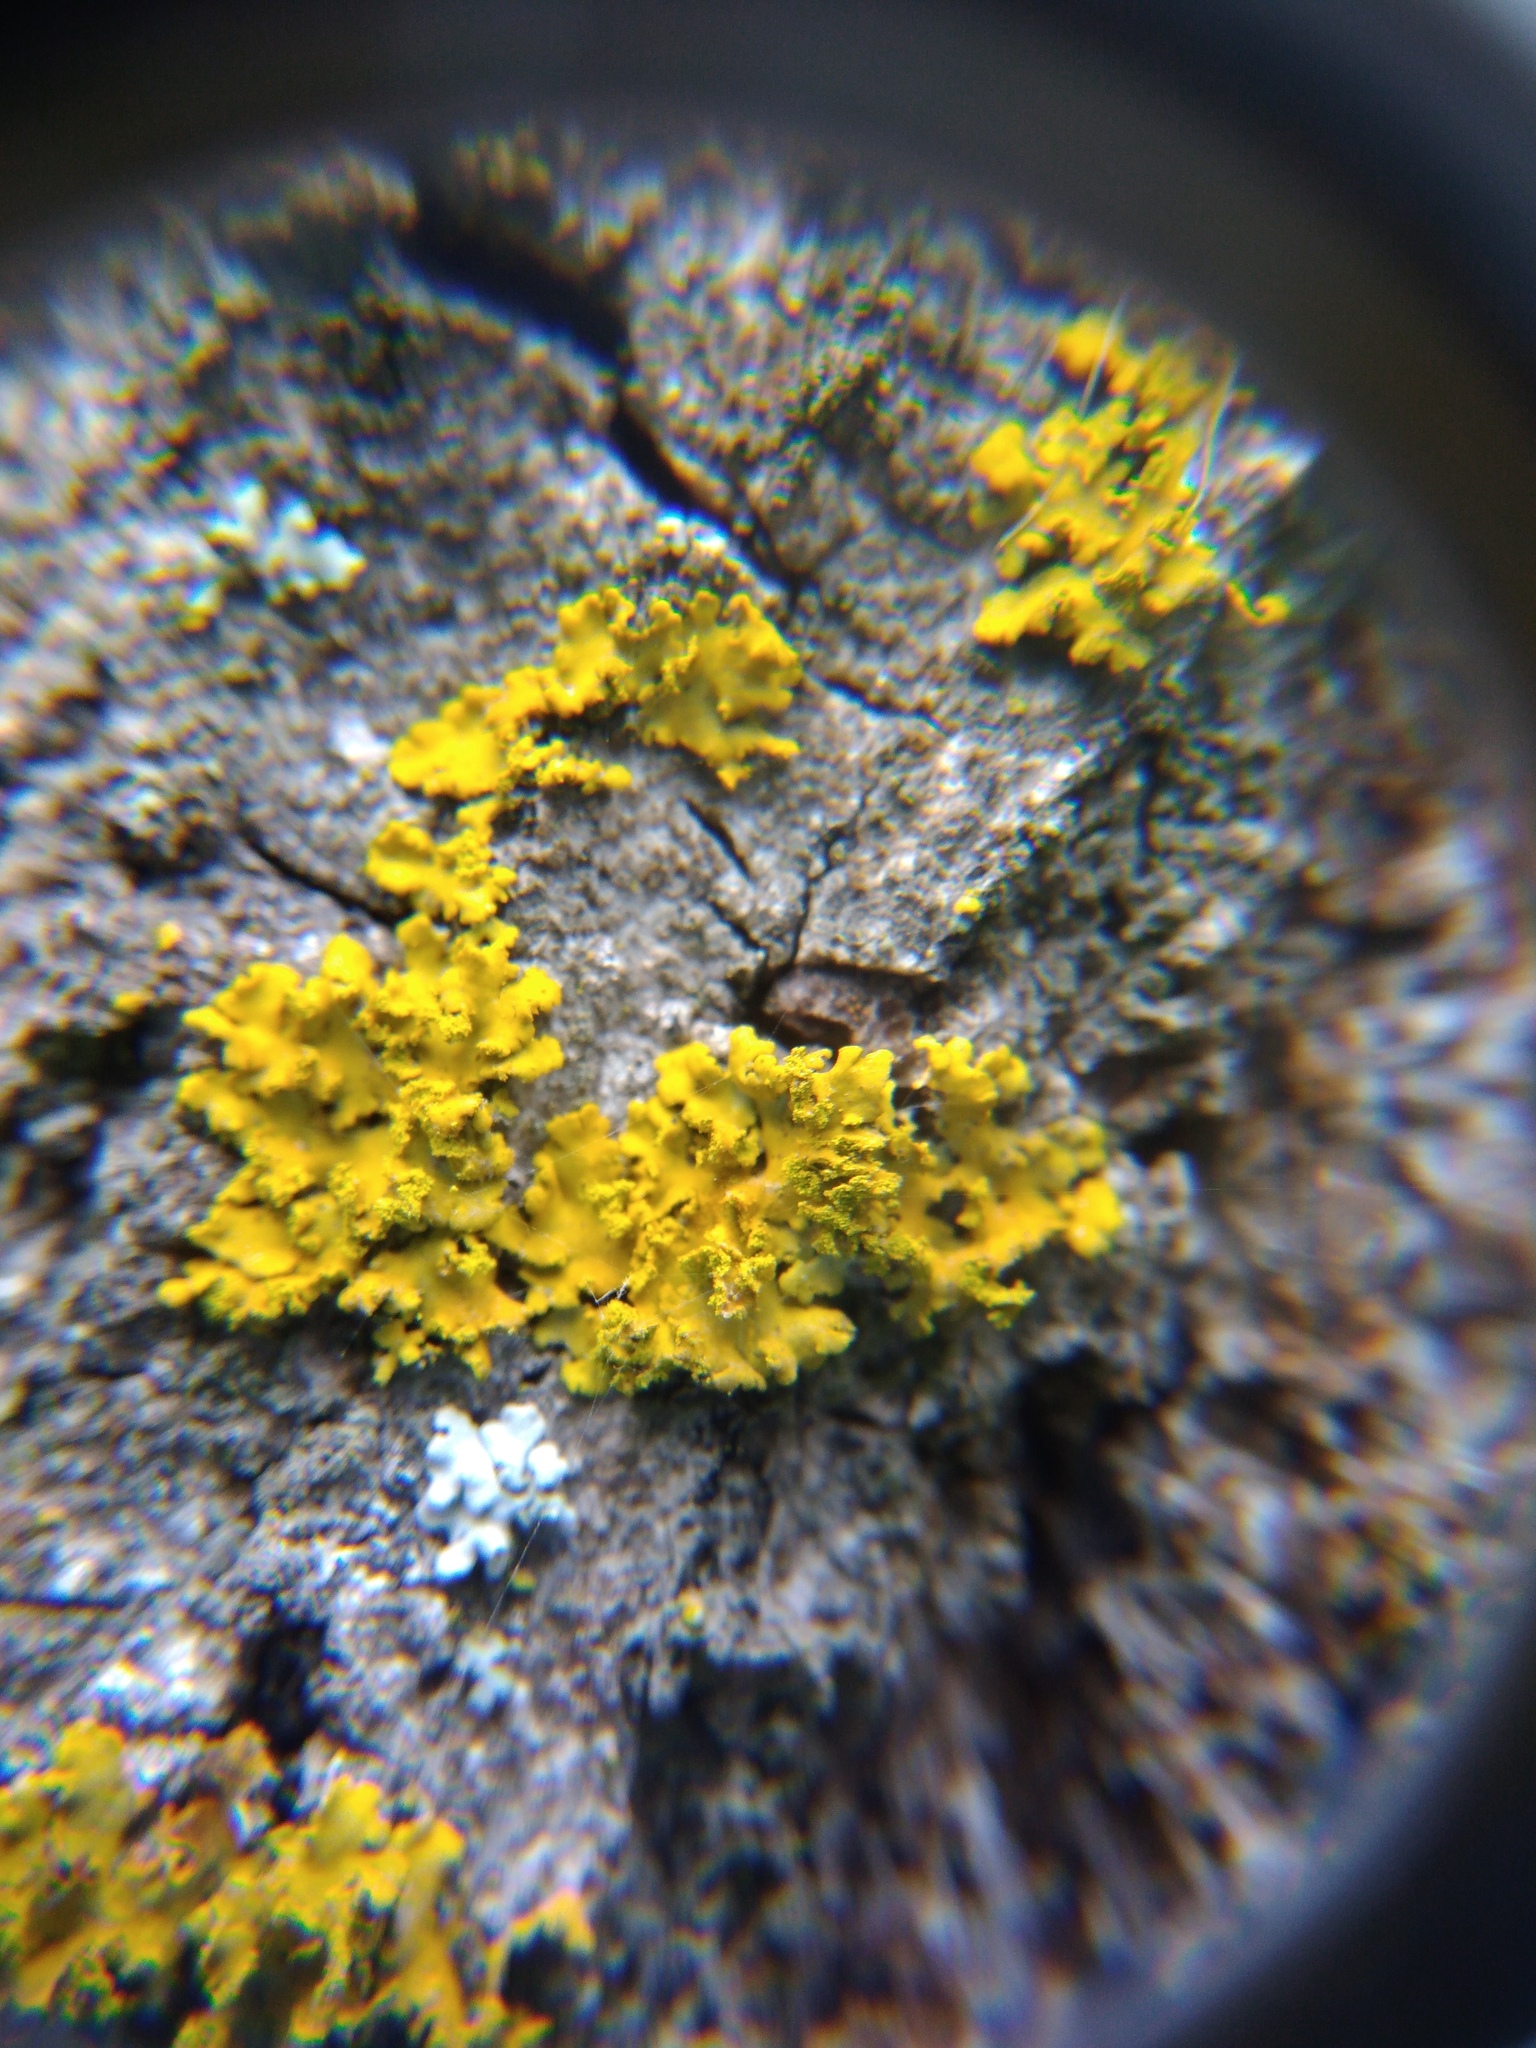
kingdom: Fungi
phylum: Ascomycota
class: Lecanoromycetes
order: Teloschistales
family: Teloschistaceae
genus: Xanthomendoza
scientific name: Xanthomendoza huculica
